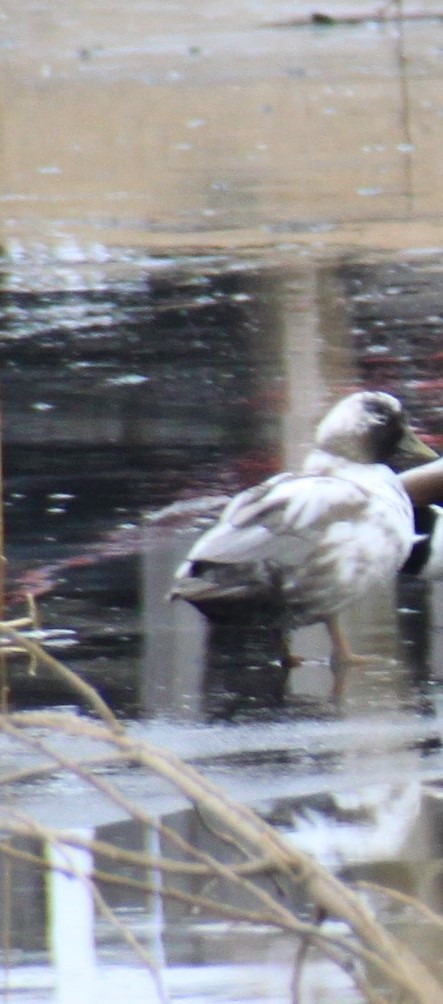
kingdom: Animalia
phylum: Chordata
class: Aves
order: Anseriformes
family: Anatidae
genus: Anas
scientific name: Anas platyrhynchos
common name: Mallard
